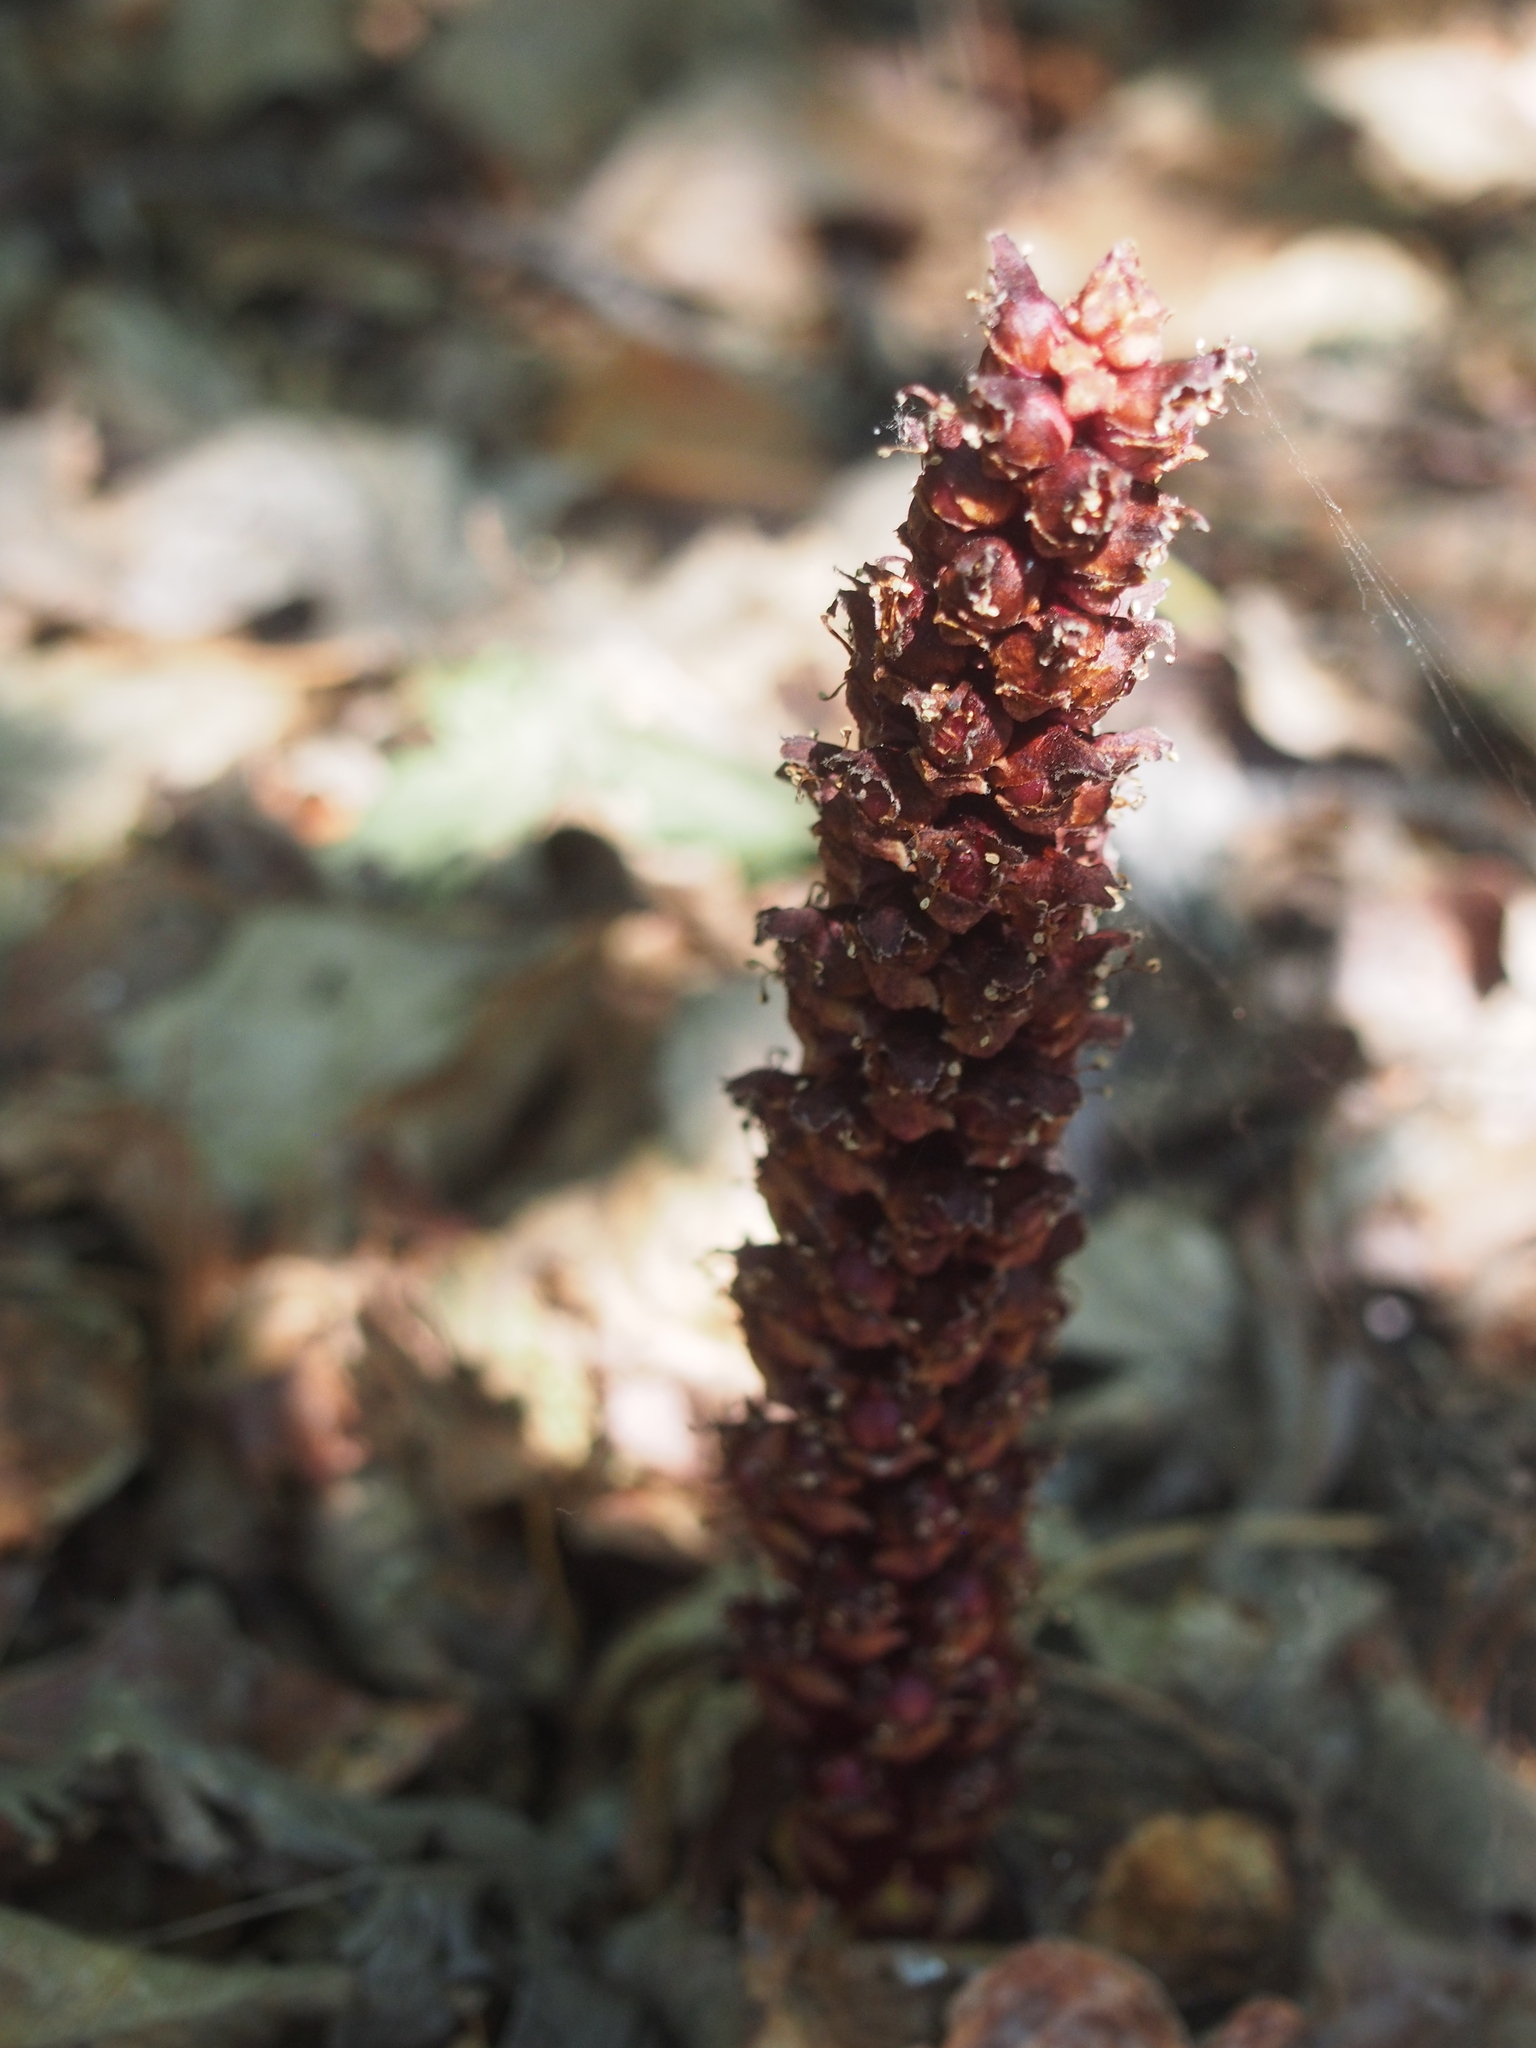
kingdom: Plantae
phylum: Tracheophyta
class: Magnoliopsida
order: Lamiales
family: Orobanchaceae
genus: Boschniakia
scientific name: Boschniakia rossica
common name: Poque
